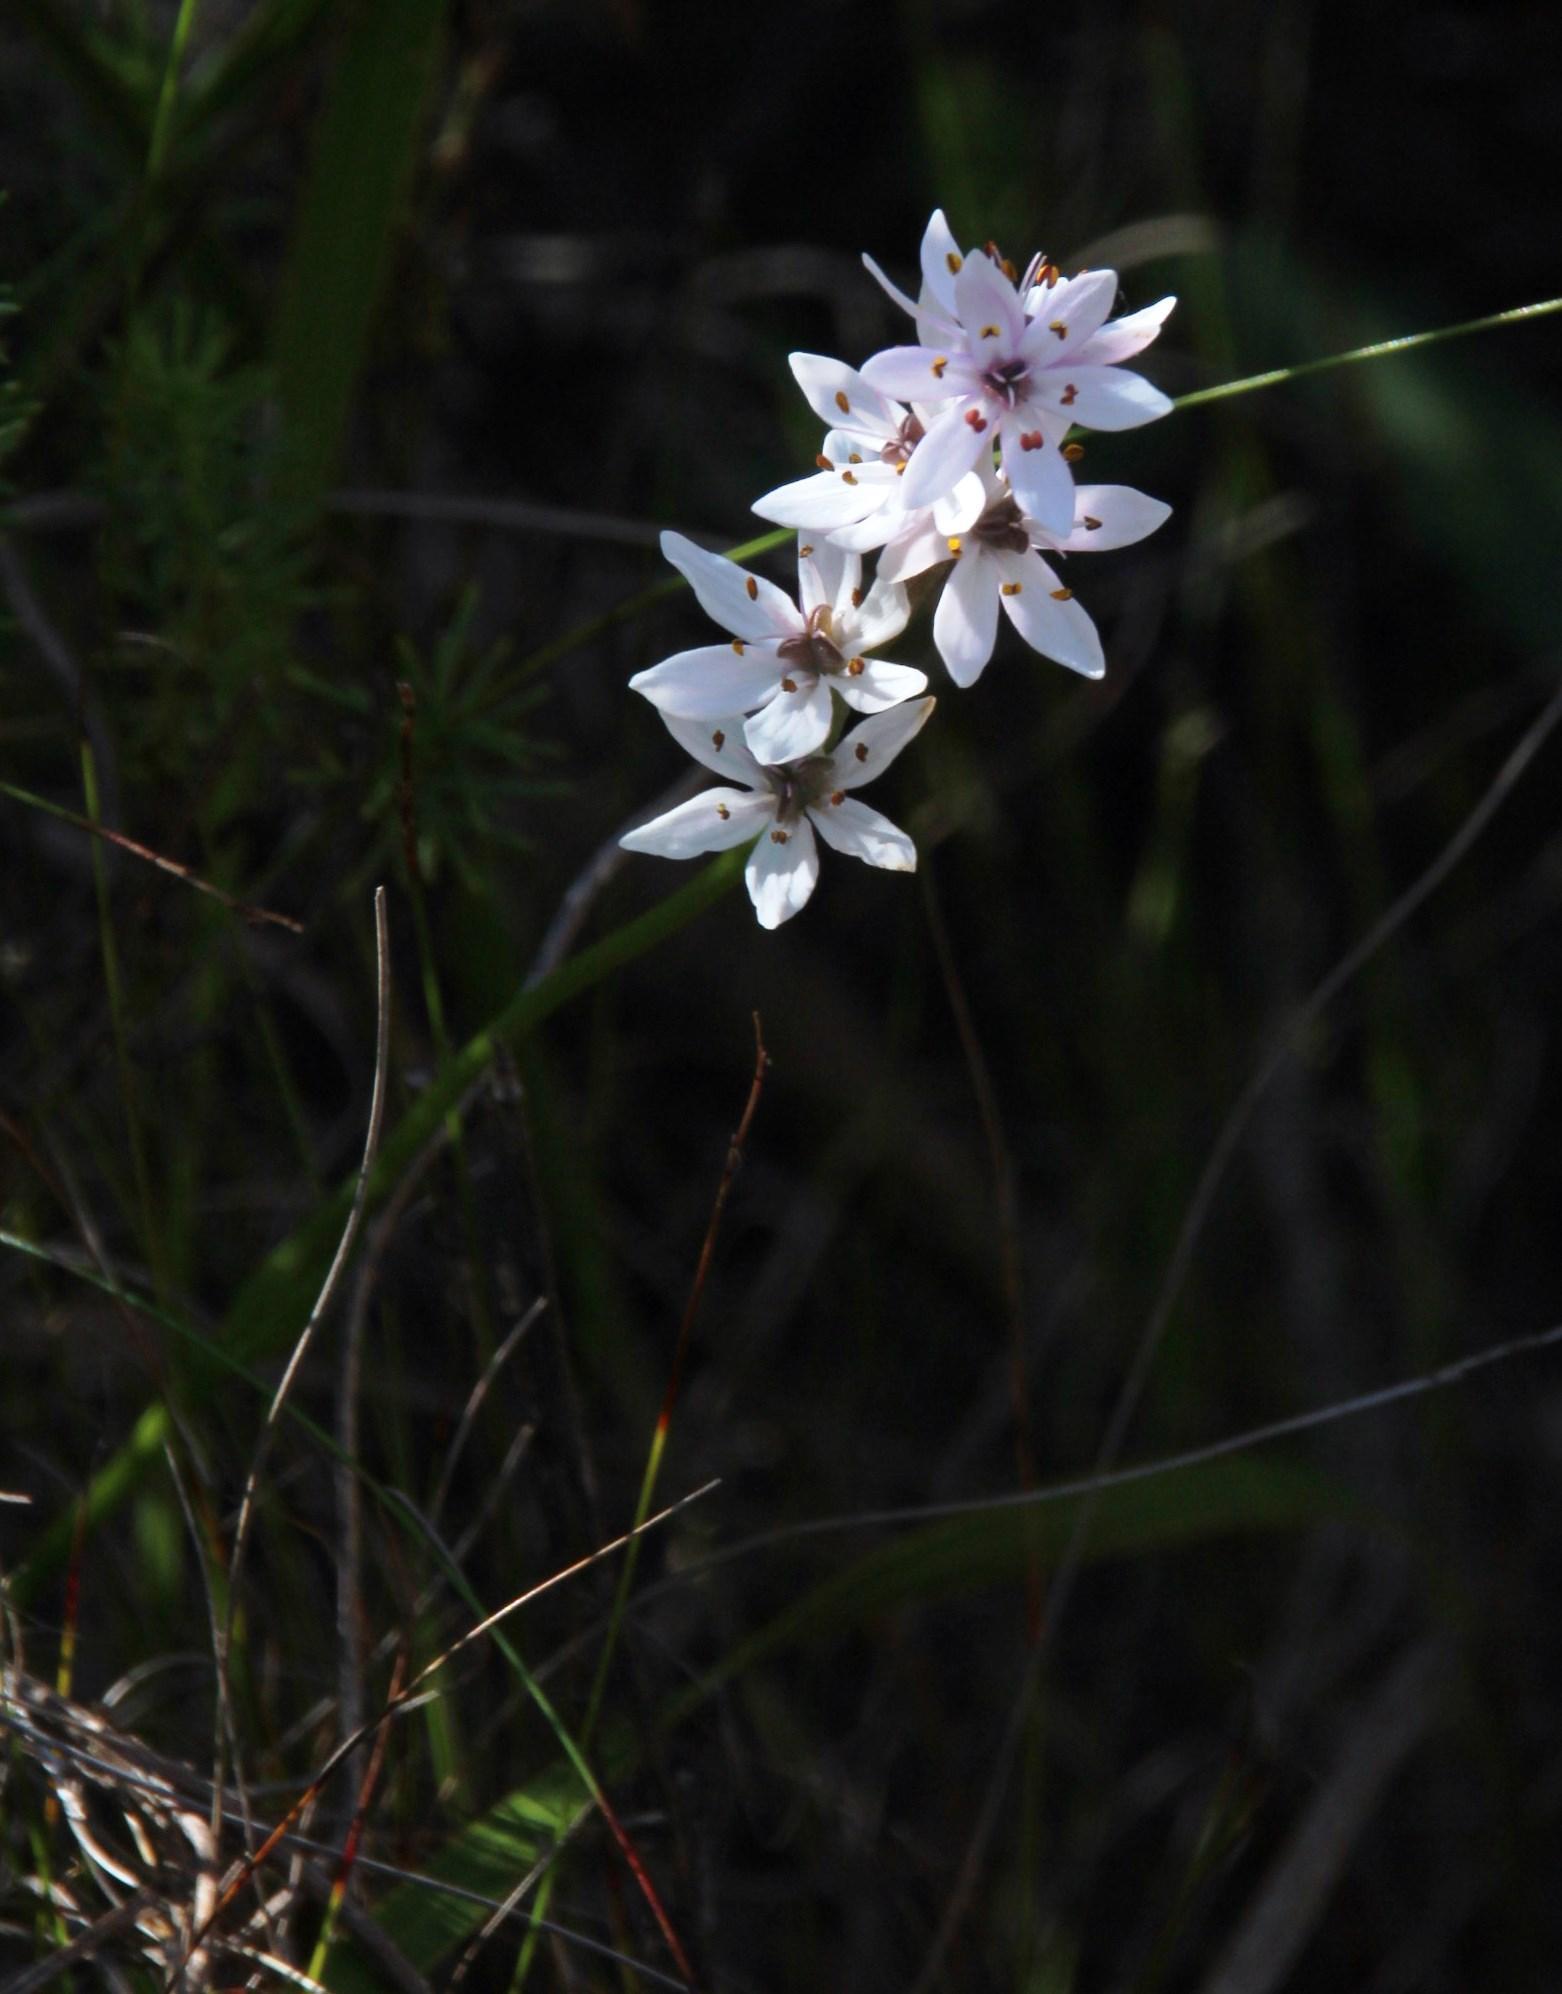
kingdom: Plantae
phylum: Tracheophyta
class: Liliopsida
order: Liliales
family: Colchicaceae
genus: Wurmbea
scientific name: Wurmbea punctata
